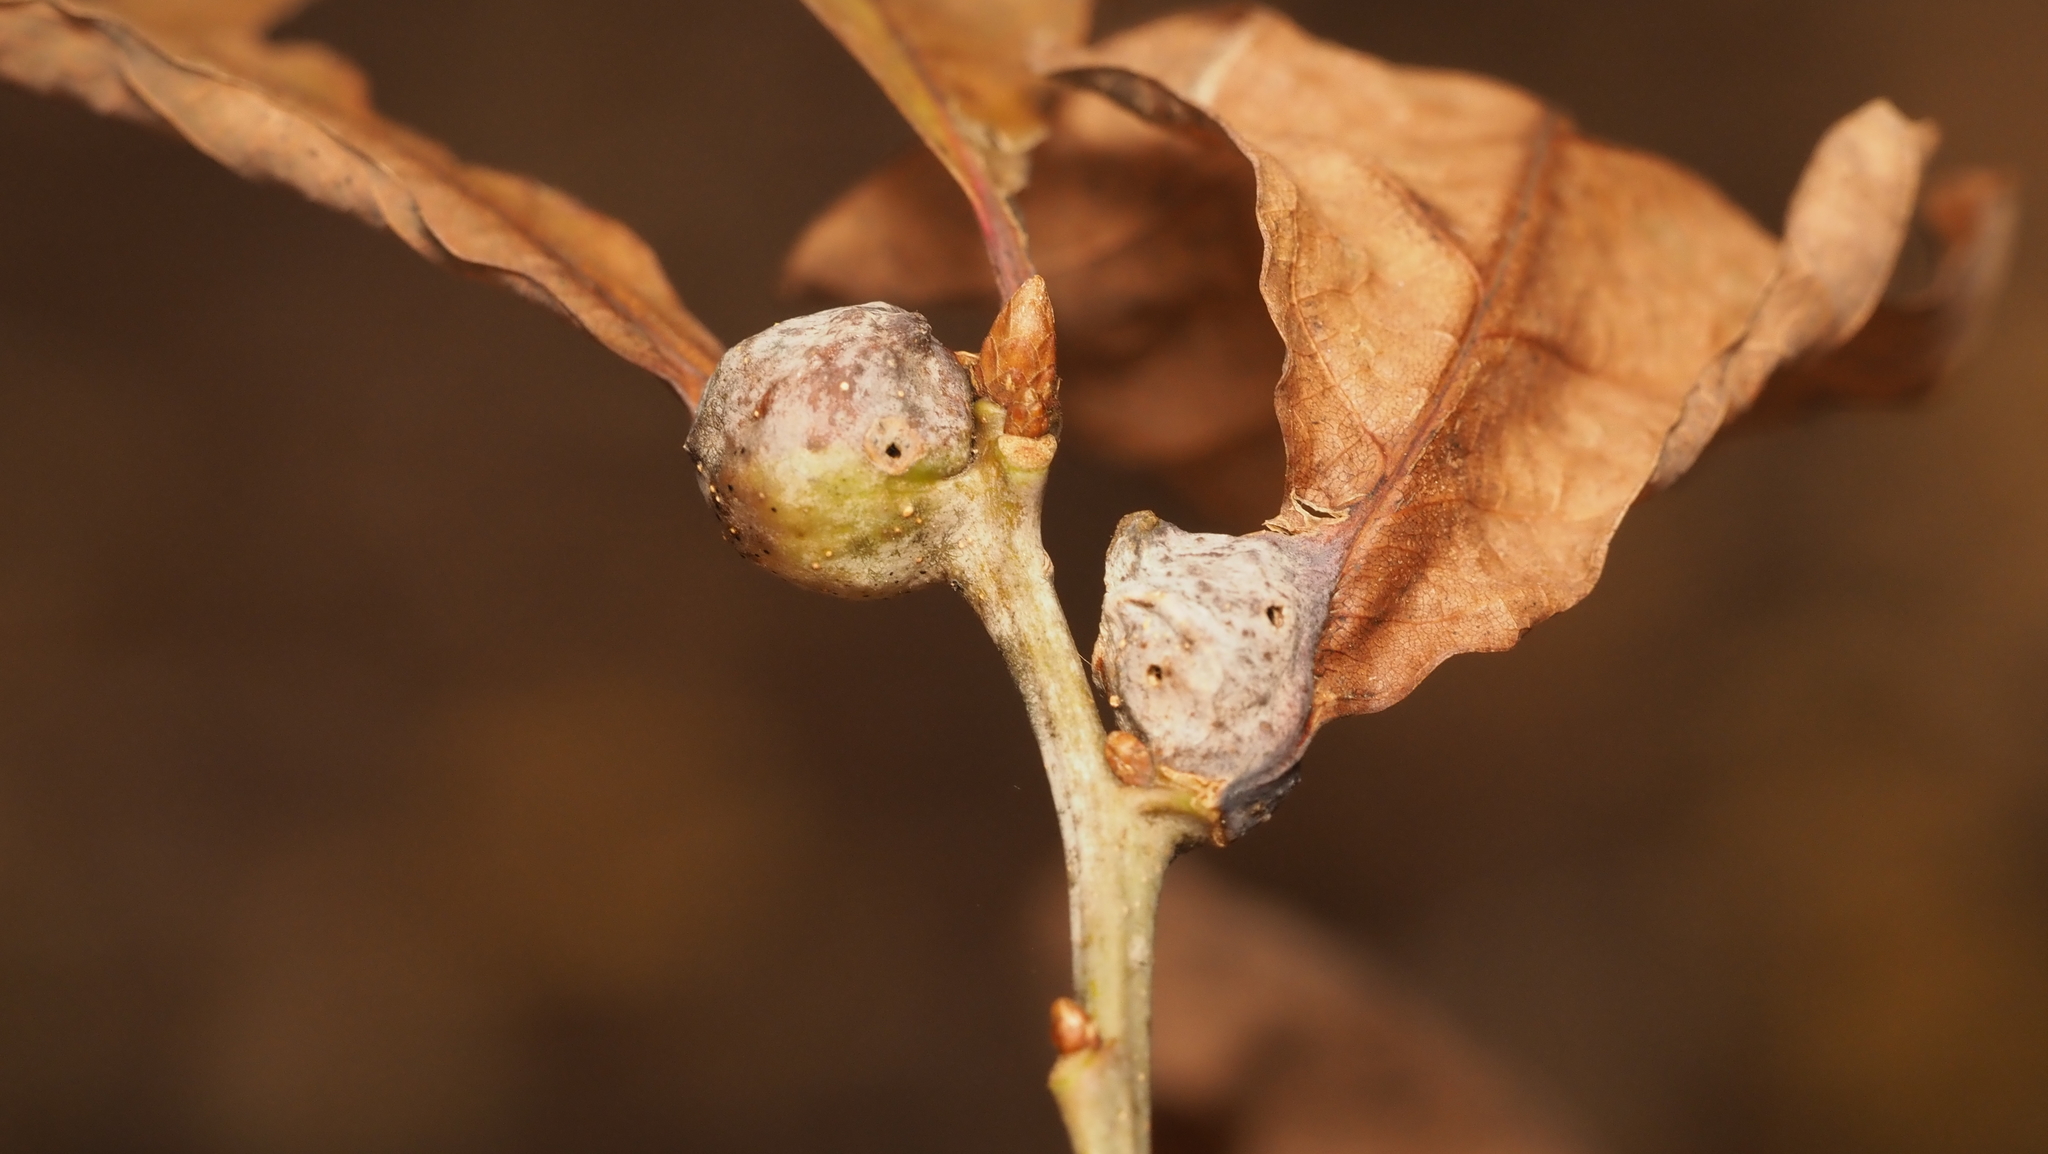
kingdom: Animalia
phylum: Arthropoda
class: Insecta
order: Hymenoptera
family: Cynipidae
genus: Andricus
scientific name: Andricus
